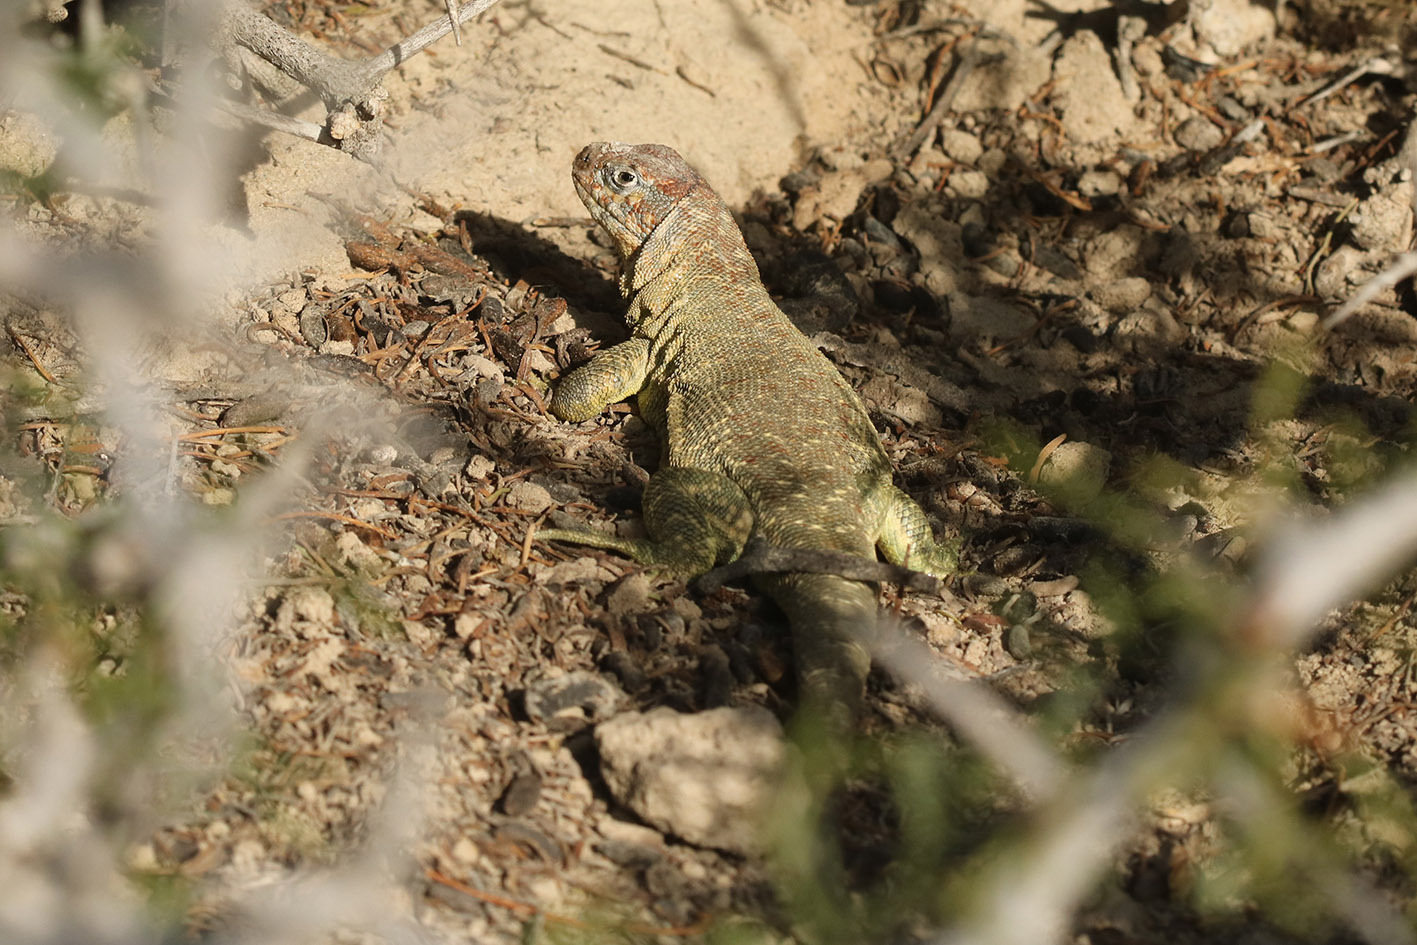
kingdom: Animalia
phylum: Chordata
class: Squamata
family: Liolaemidae
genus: Liolaemus
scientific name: Liolaemus melanops
